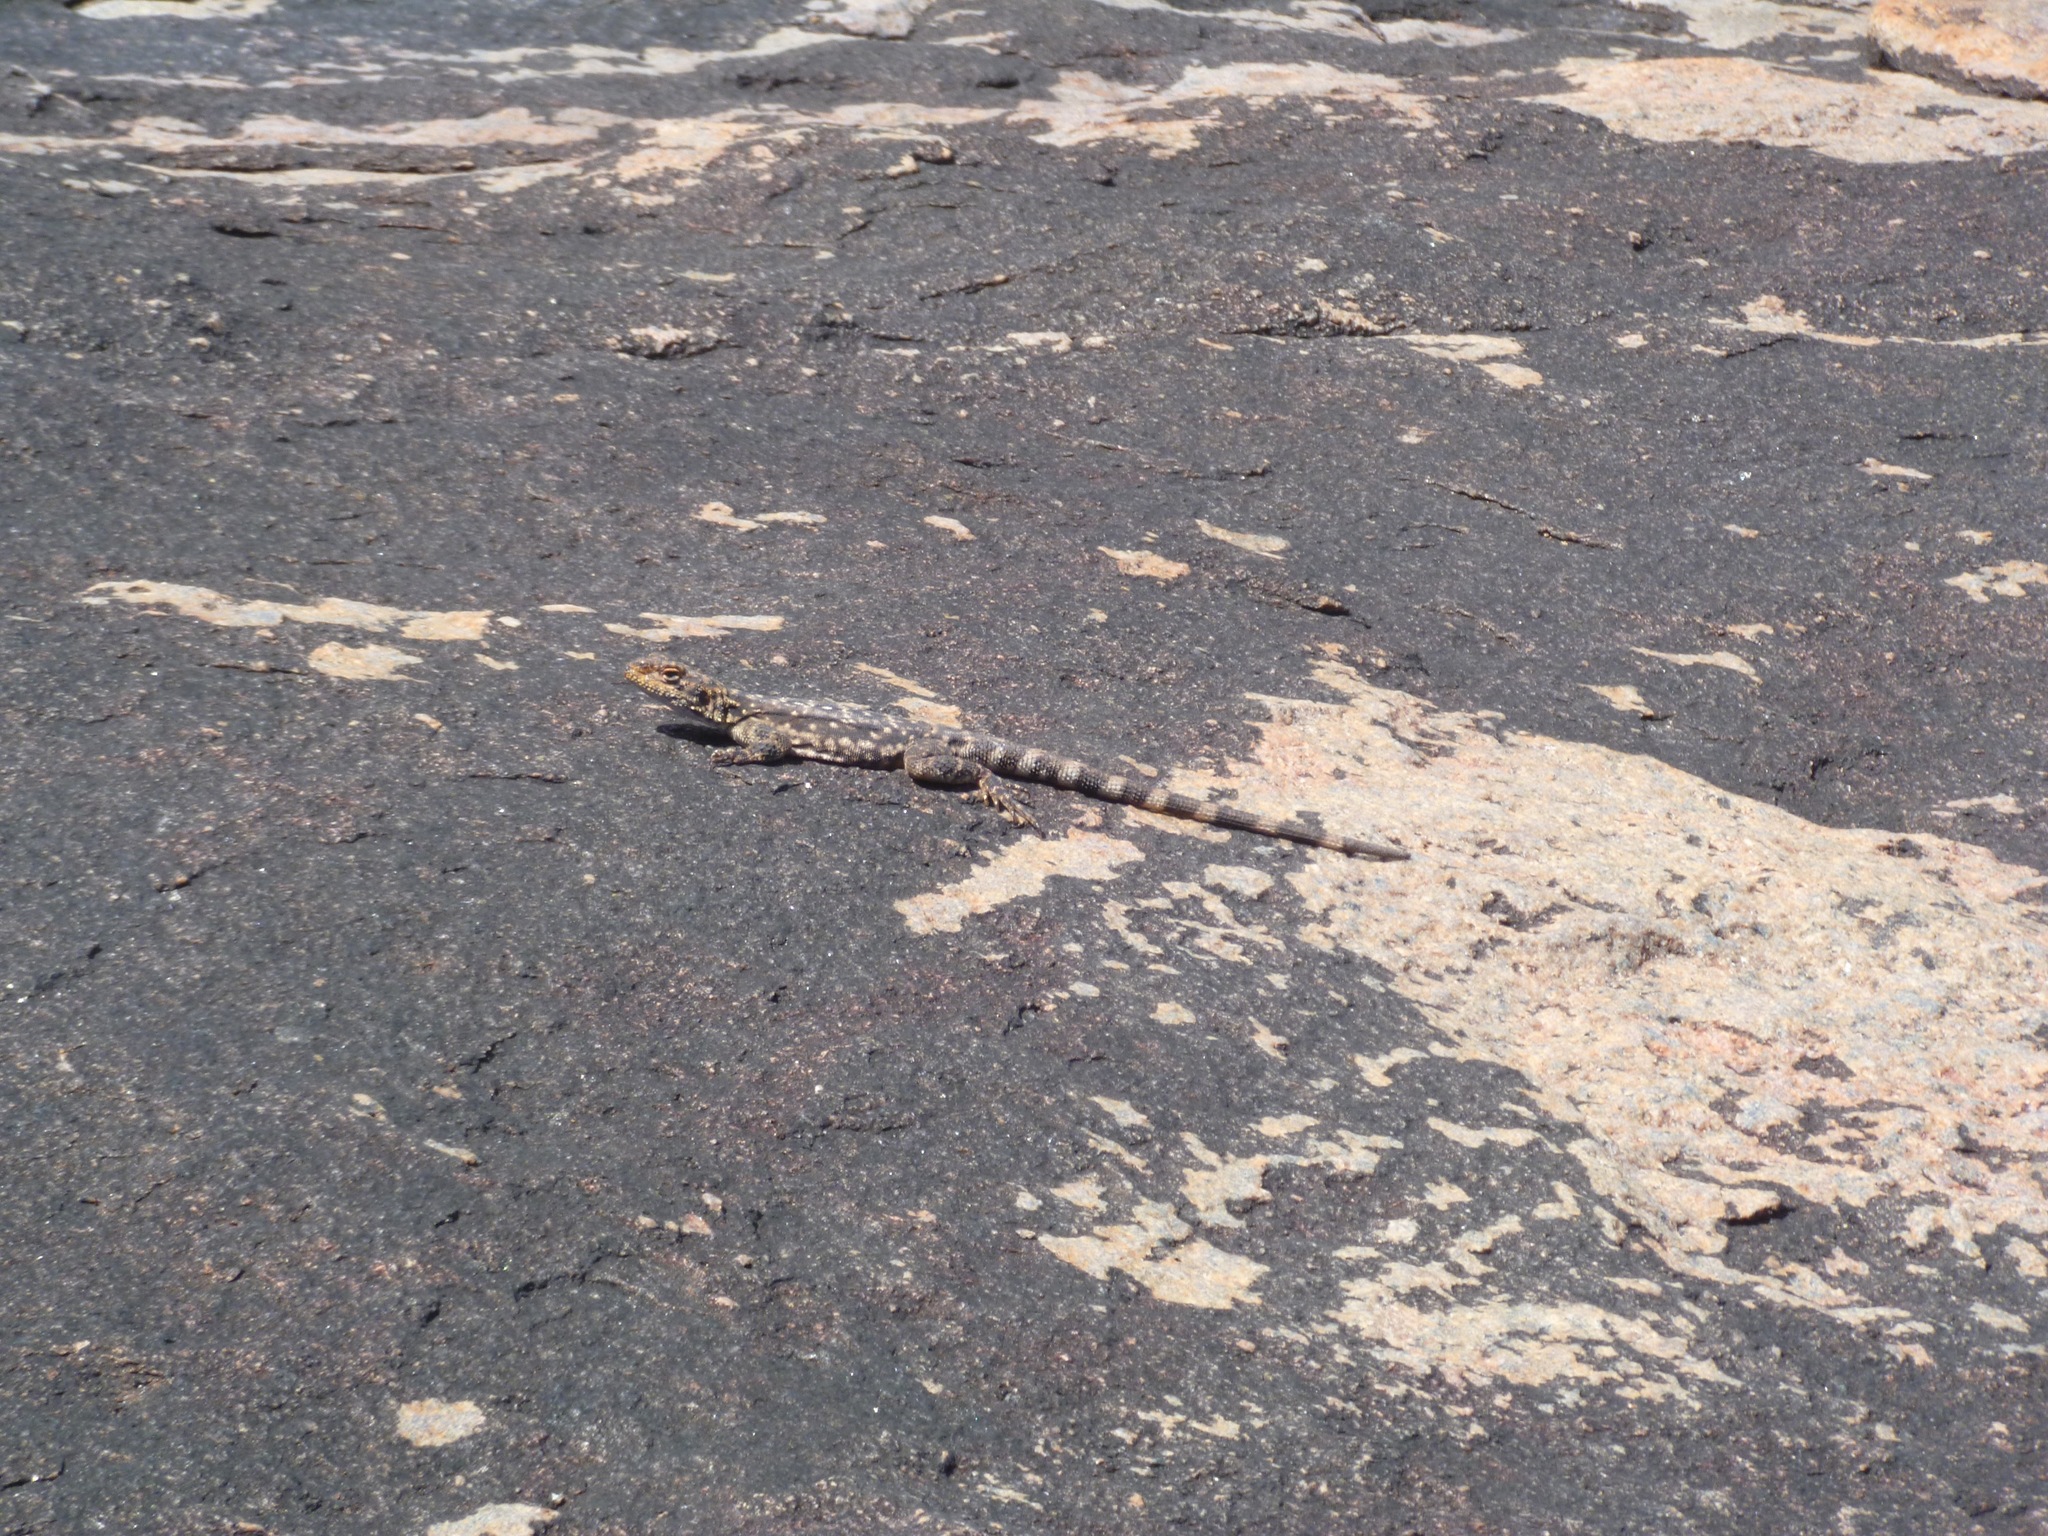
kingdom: Animalia
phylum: Chordata
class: Squamata
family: Agamidae
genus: Ctenophorus
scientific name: Ctenophorus ornatus
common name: Ornate crevice-dragon
